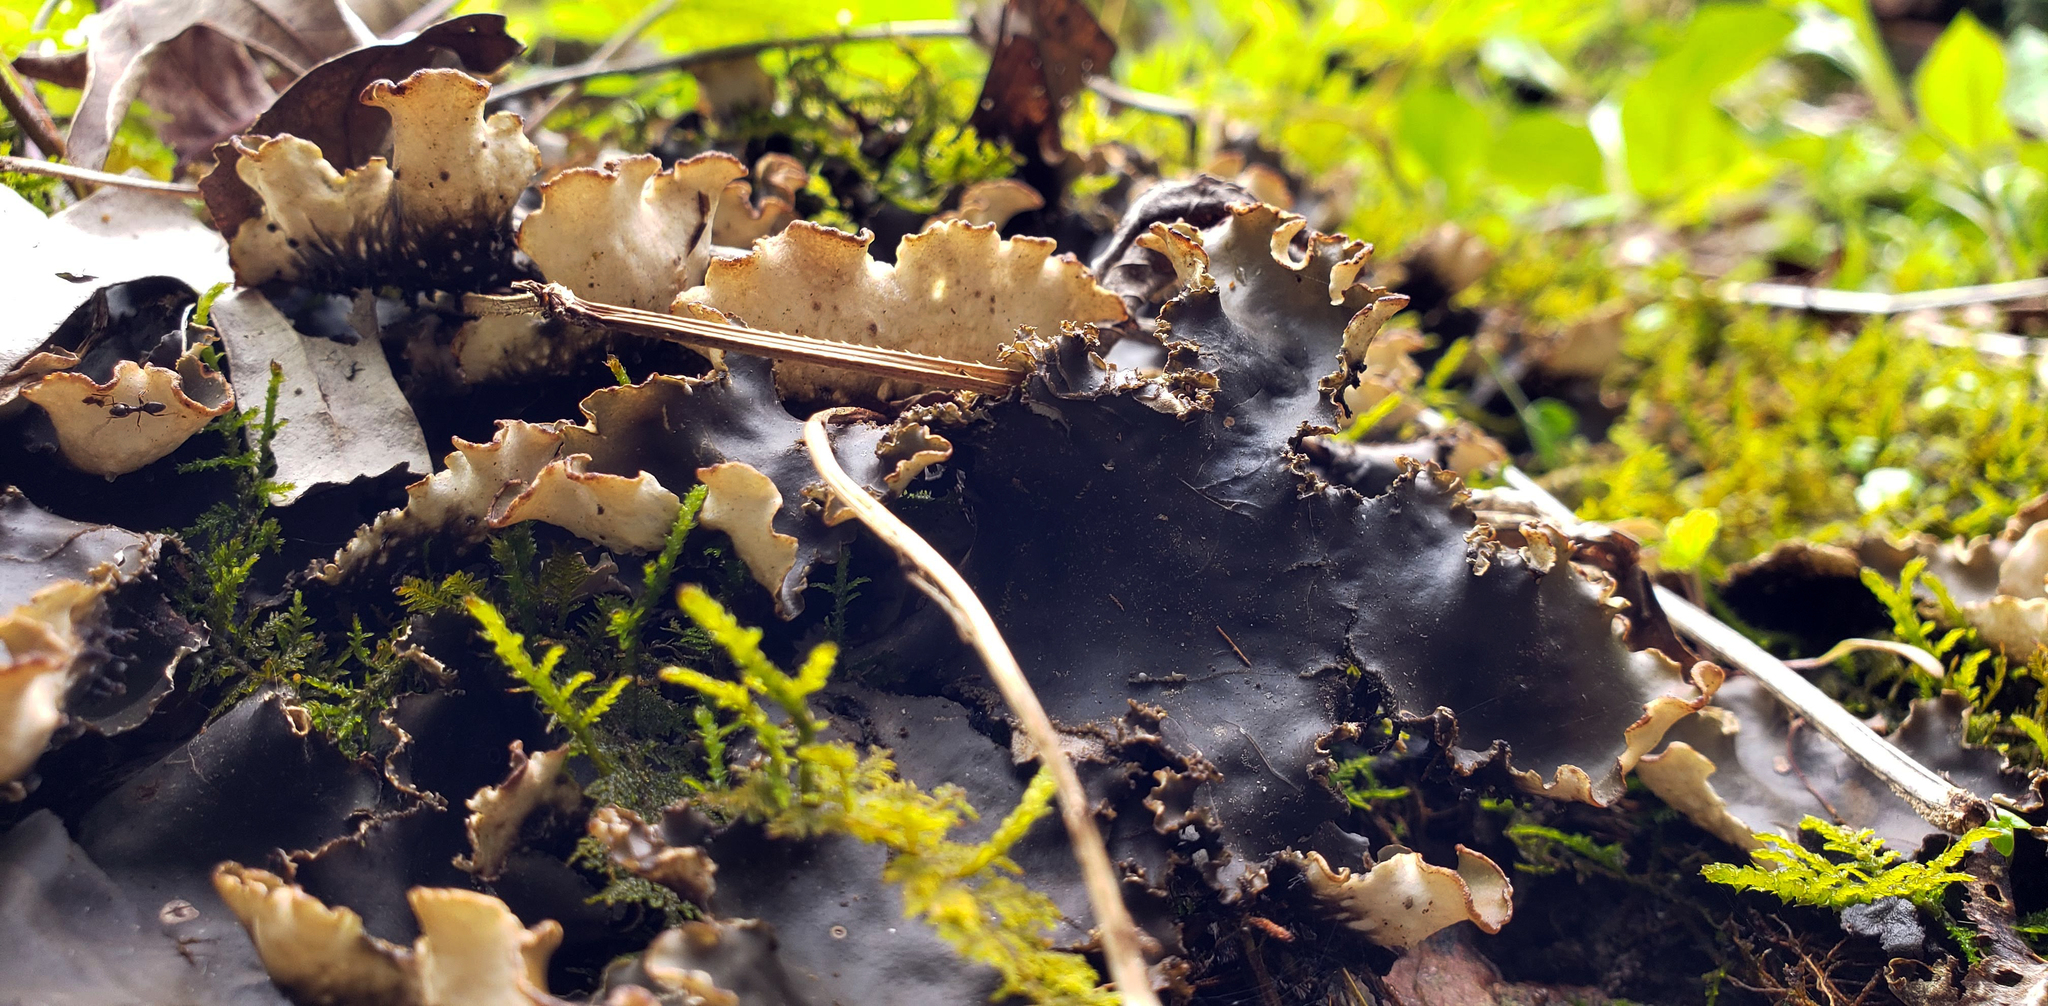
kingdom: Fungi
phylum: Ascomycota
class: Lecanoromycetes
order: Peltigerales
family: Peltigeraceae
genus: Peltigera
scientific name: Peltigera elisabethae
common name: Concentric pelt lichen
